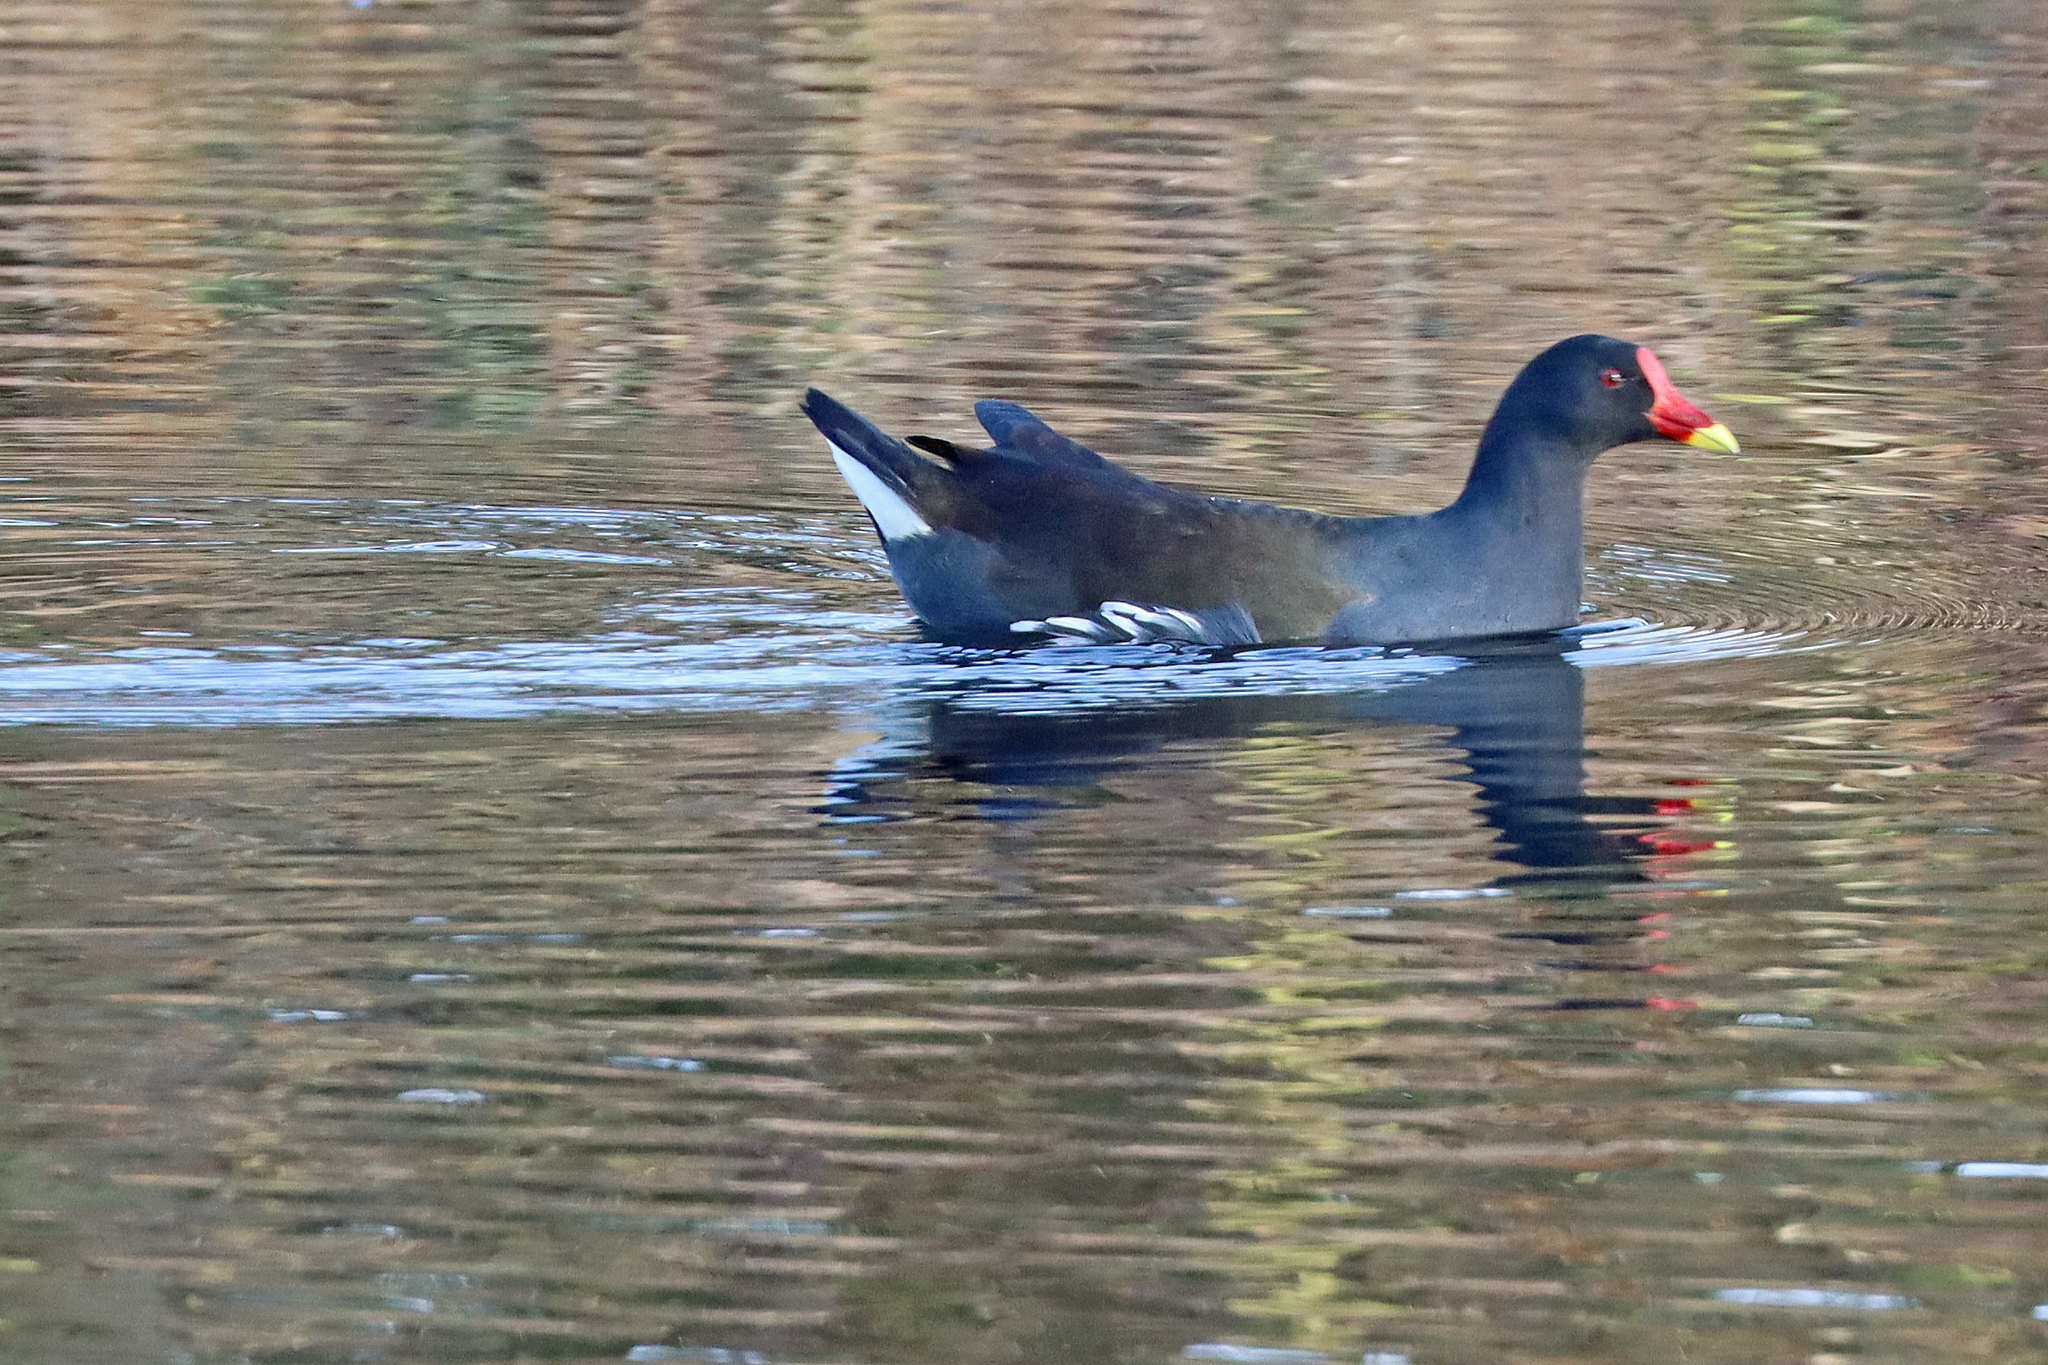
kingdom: Animalia
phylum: Chordata
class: Aves
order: Gruiformes
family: Rallidae
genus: Gallinula
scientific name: Gallinula chloropus
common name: Common moorhen
